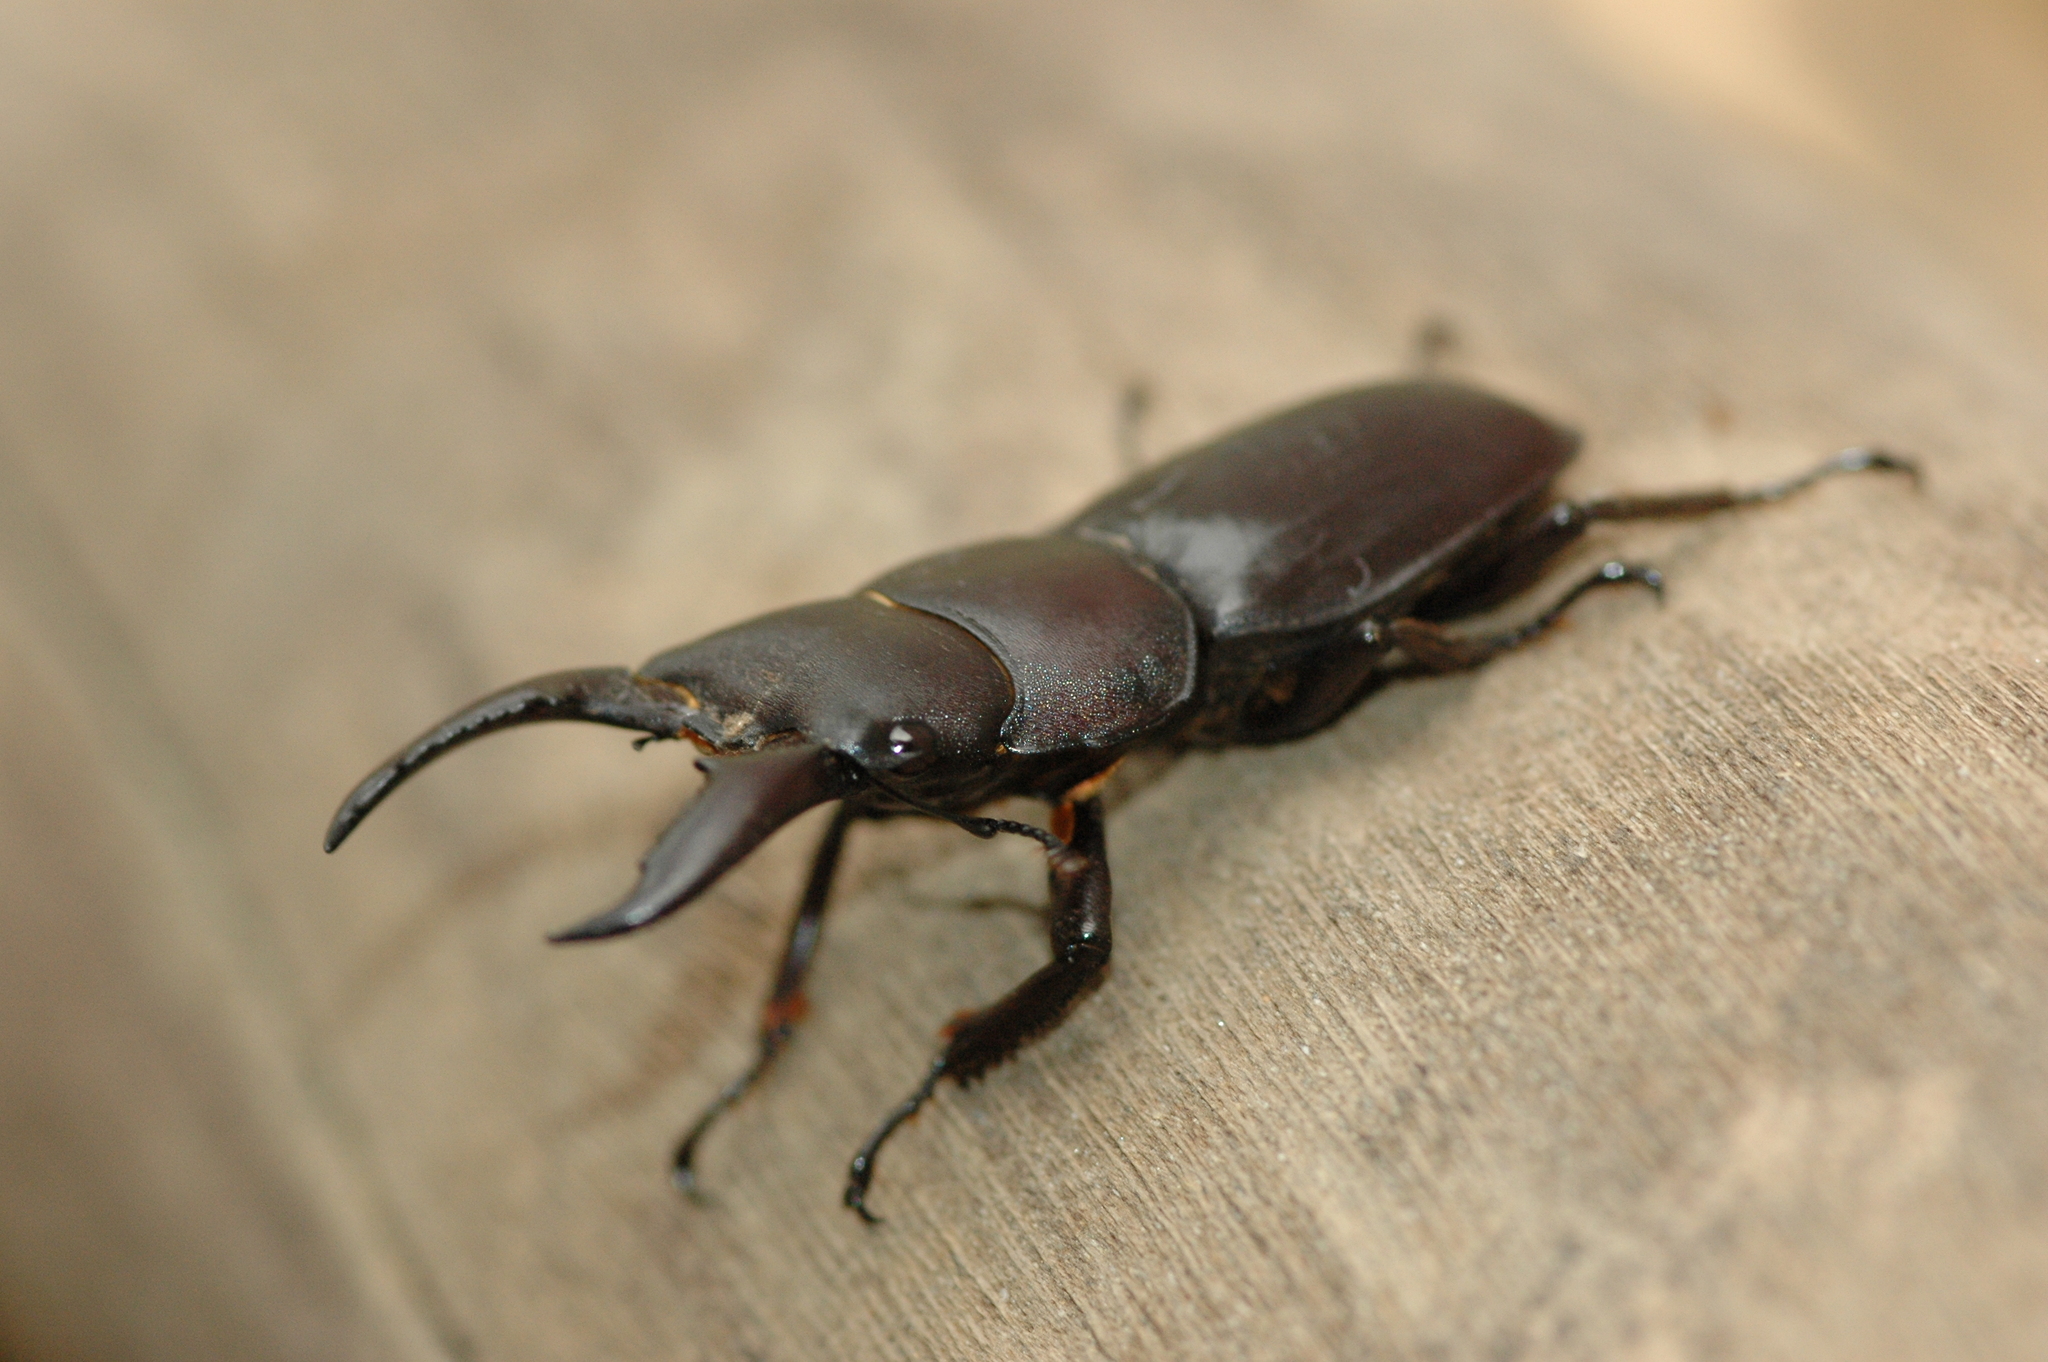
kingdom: Animalia
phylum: Arthropoda
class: Insecta
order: Coleoptera
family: Lucanidae
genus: Serrognathus
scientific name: Serrognathus titanus
